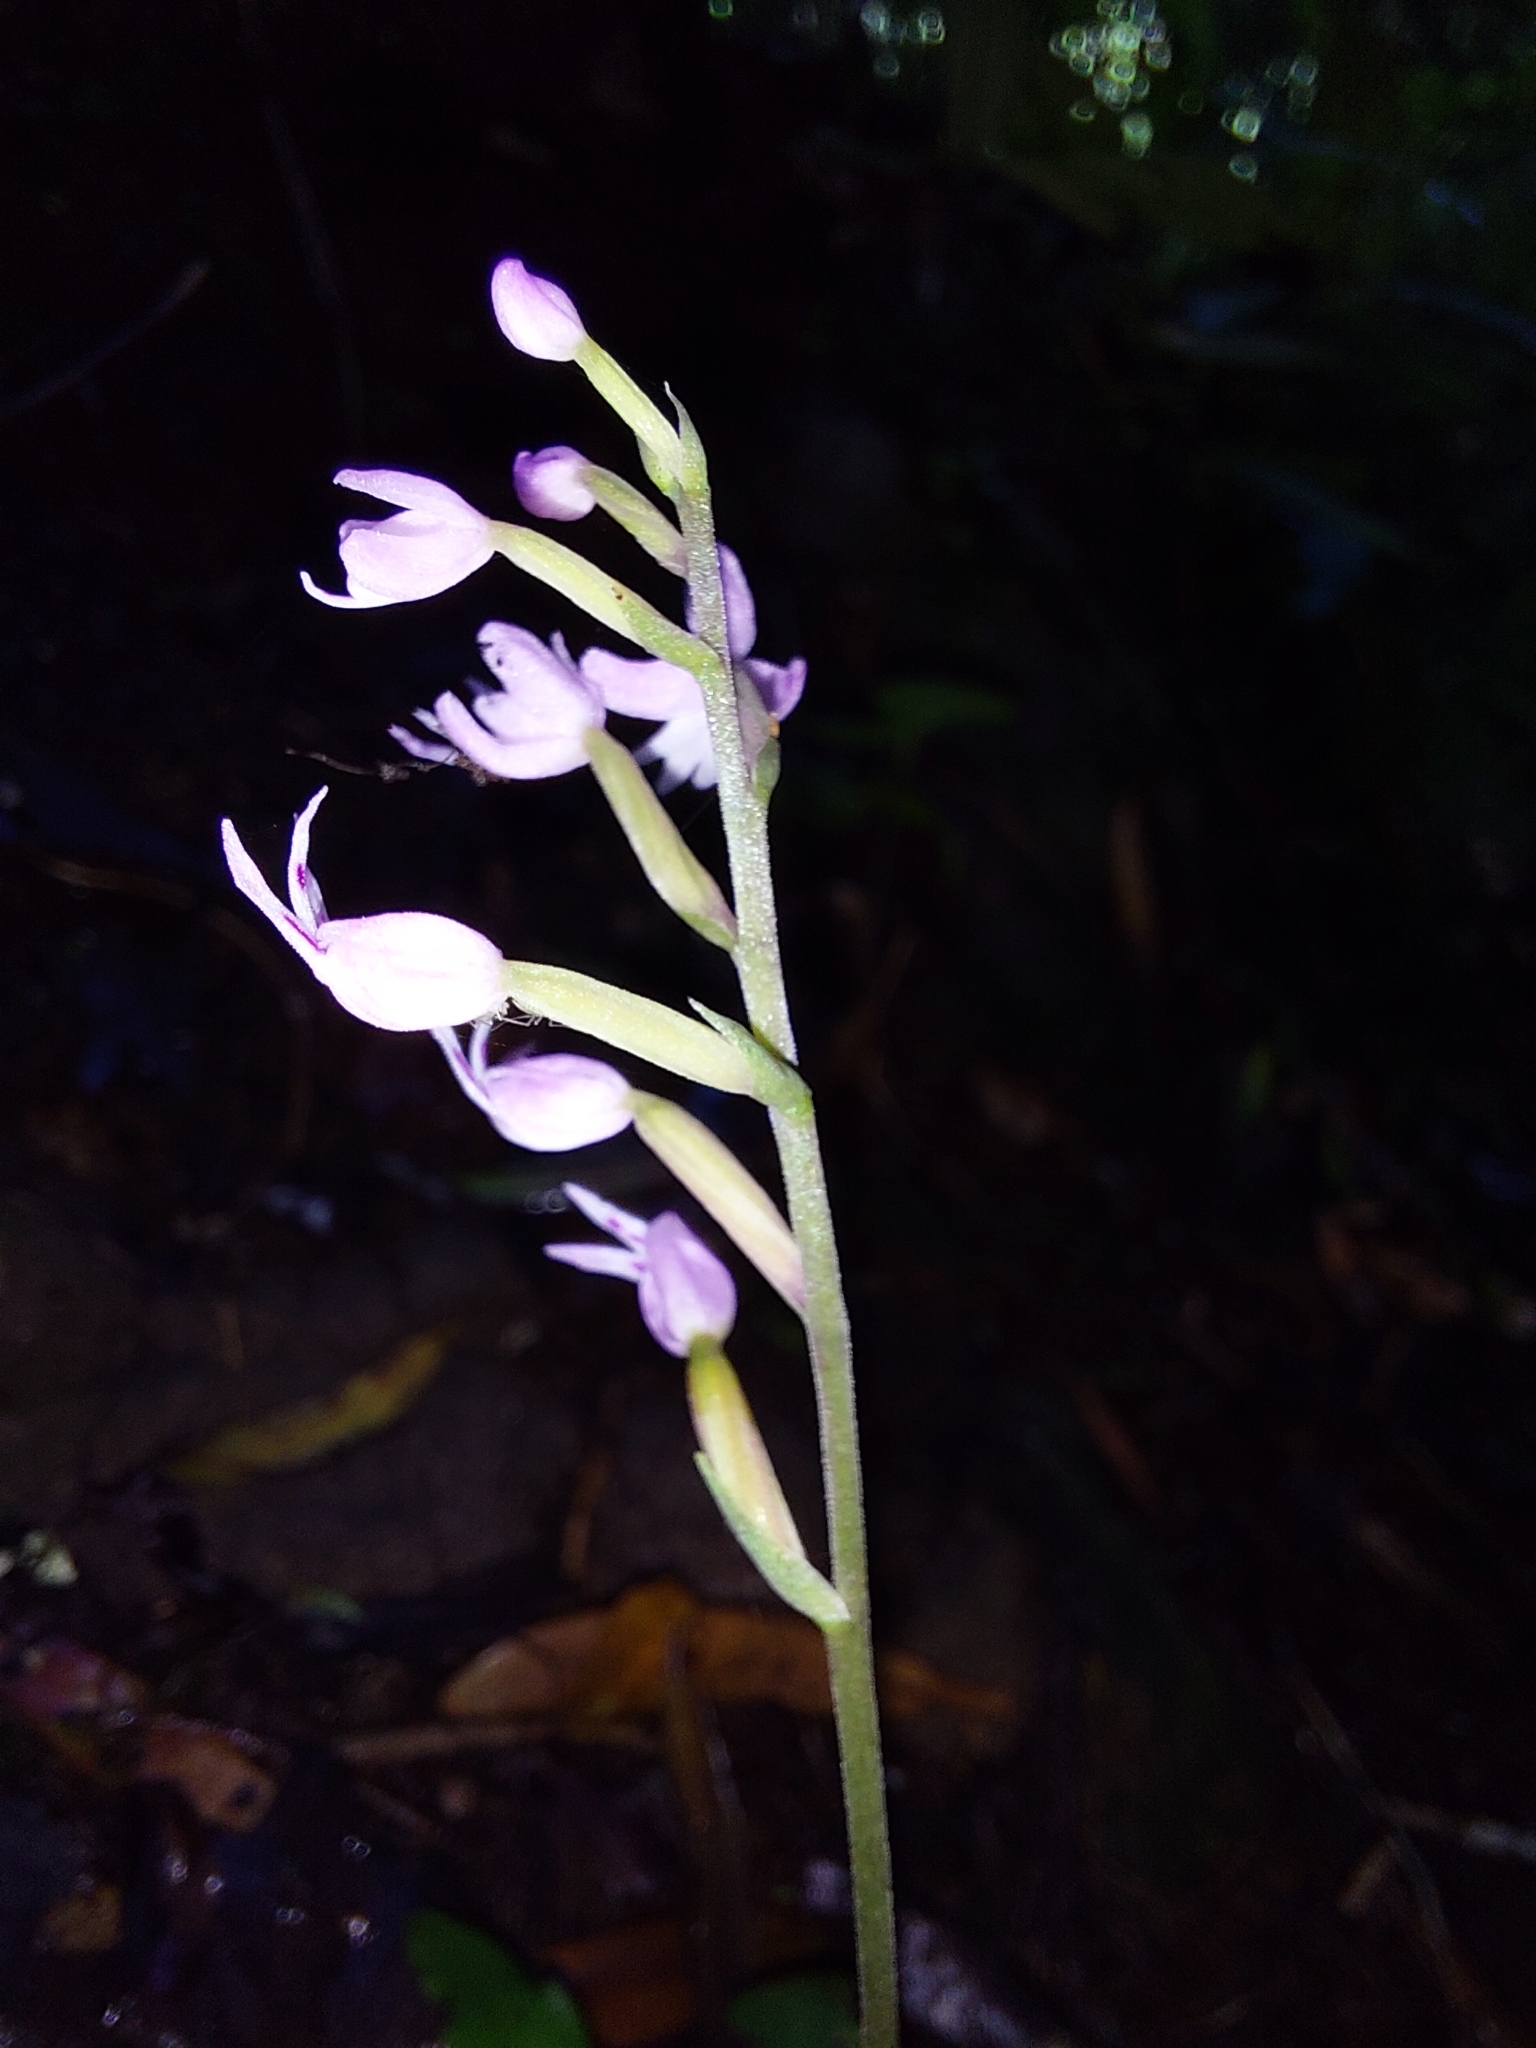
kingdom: Plantae
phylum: Tracheophyta
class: Liliopsida
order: Asparagales
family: Orchidaceae
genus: Stenoglottis
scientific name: Stenoglottis fimbriata
